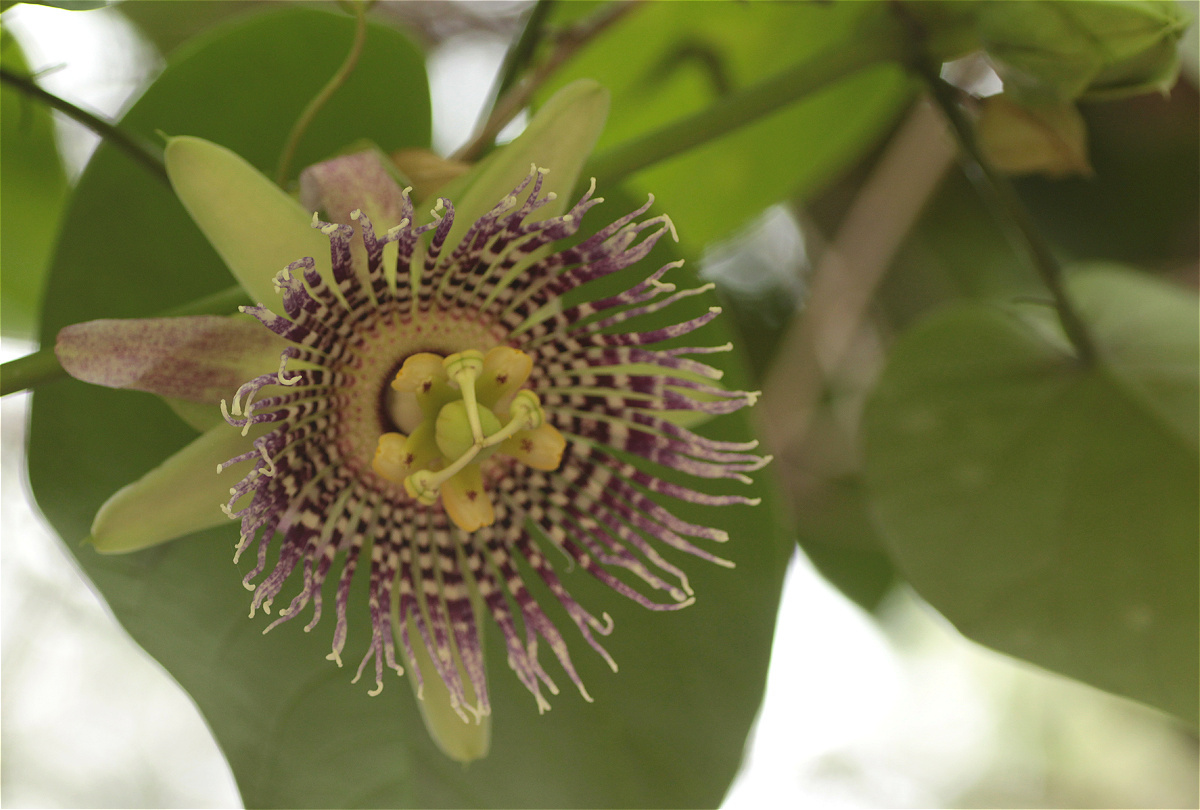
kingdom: Plantae
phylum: Tracheophyta
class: Magnoliopsida
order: Malpighiales
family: Passifloraceae
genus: Passiflora
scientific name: Passiflora ligularis
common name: Sweet granadilla
